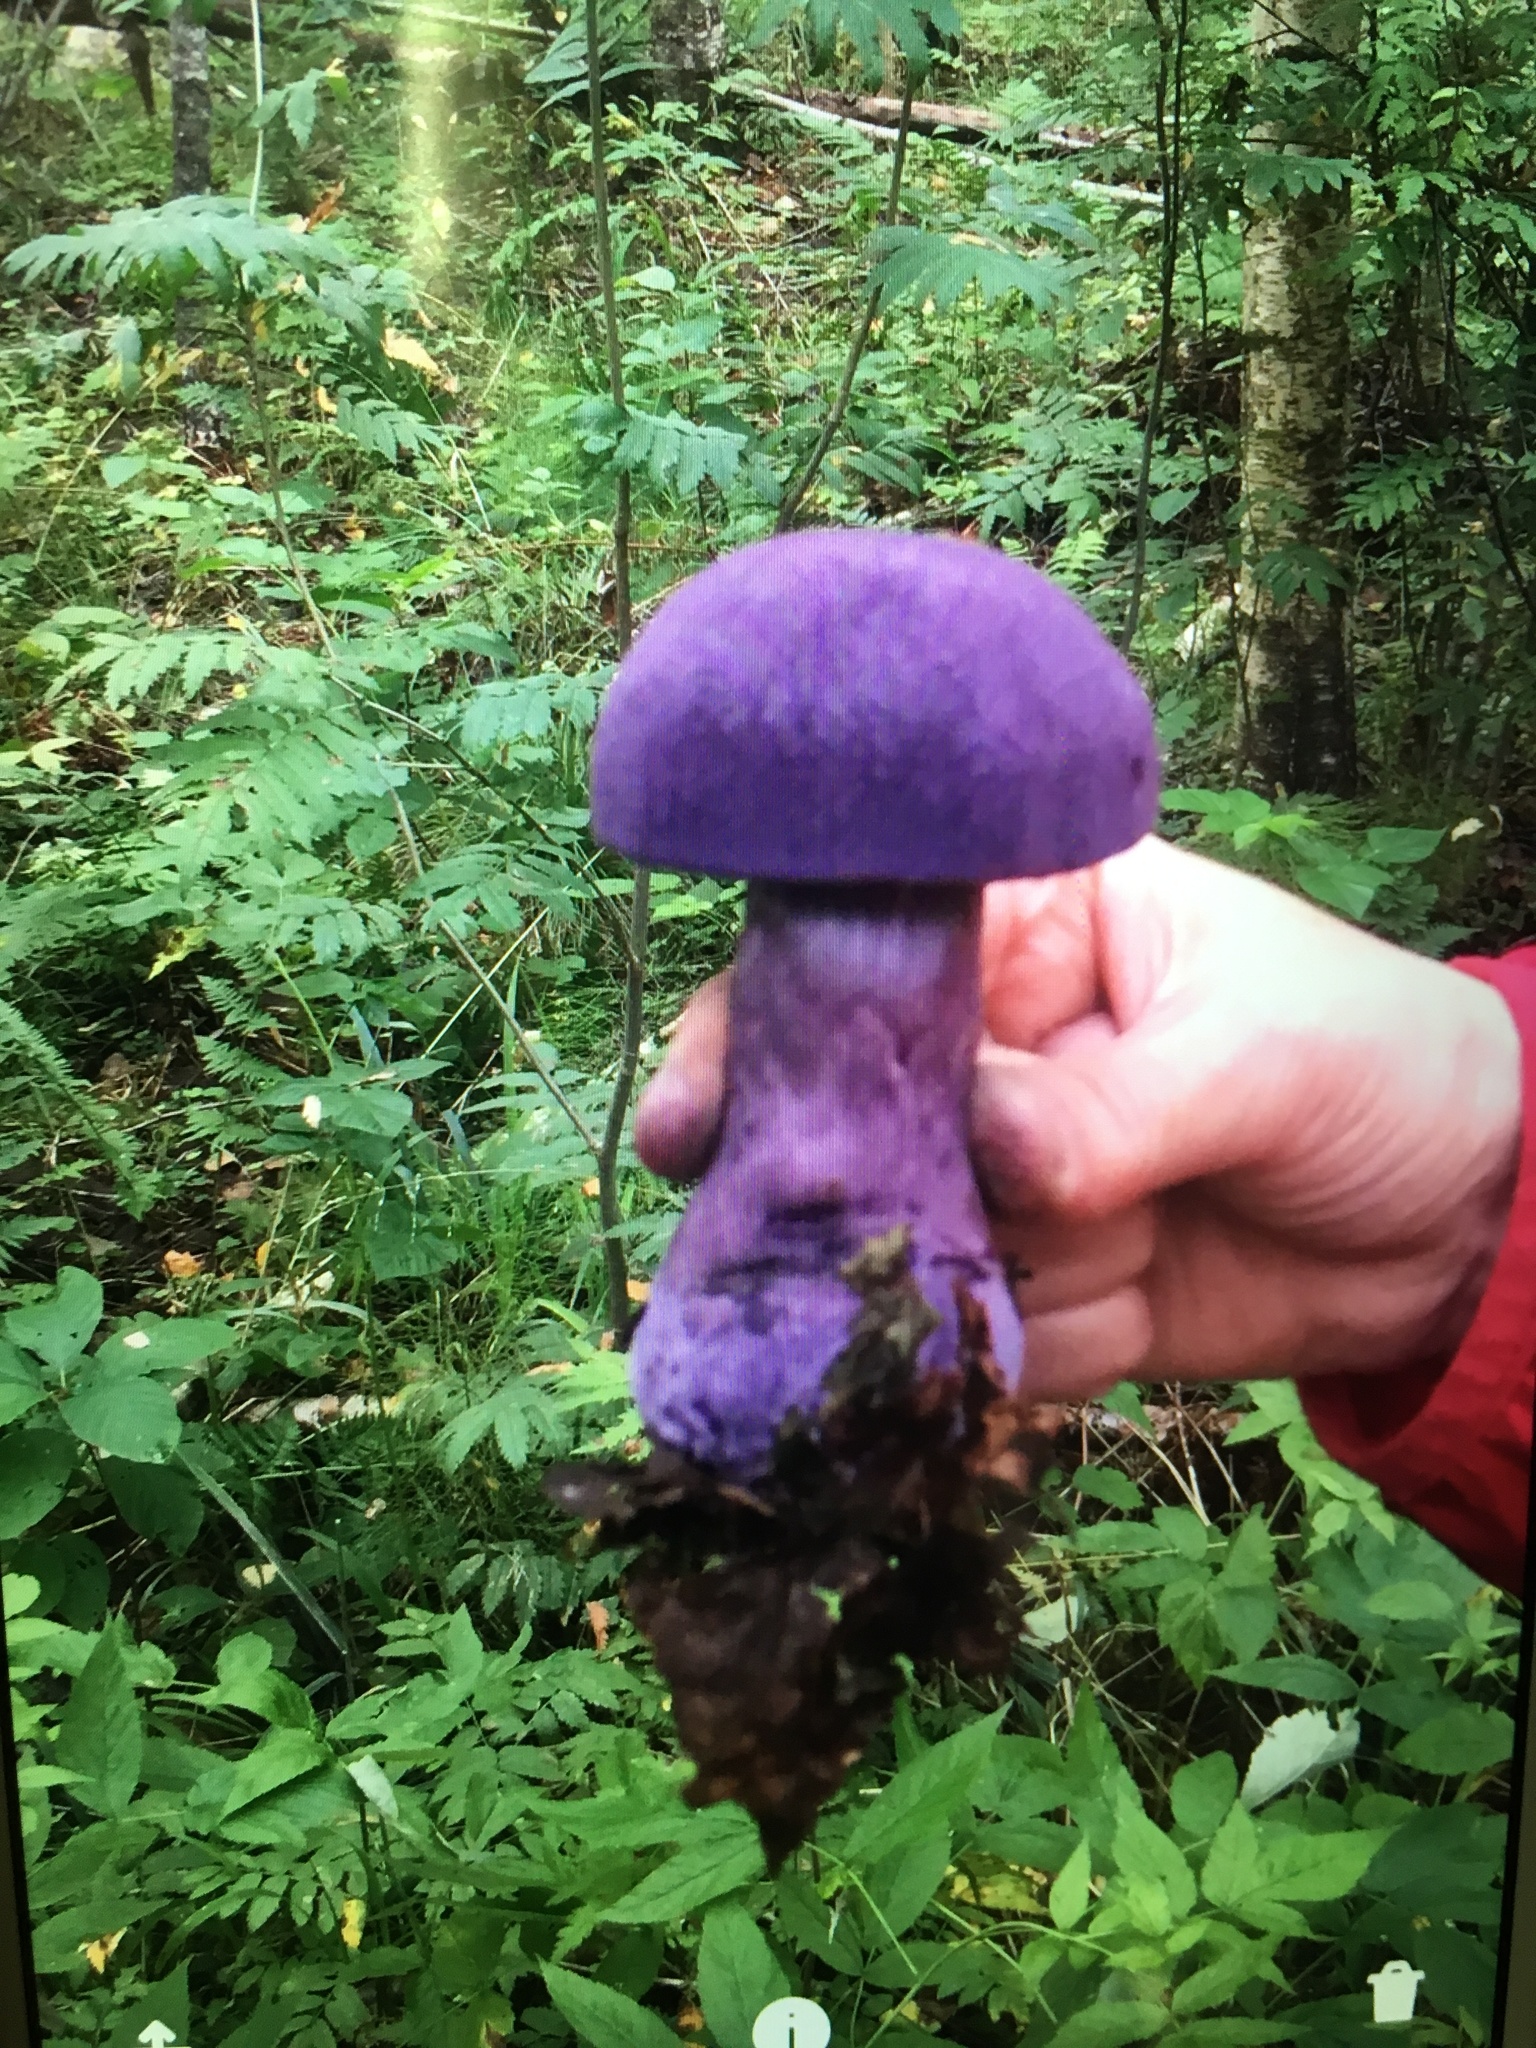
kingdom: Fungi
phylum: Basidiomycota
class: Agaricomycetes
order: Agaricales
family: Cortinariaceae
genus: Cortinarius
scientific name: Cortinarius violaceus
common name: Violet webcap
